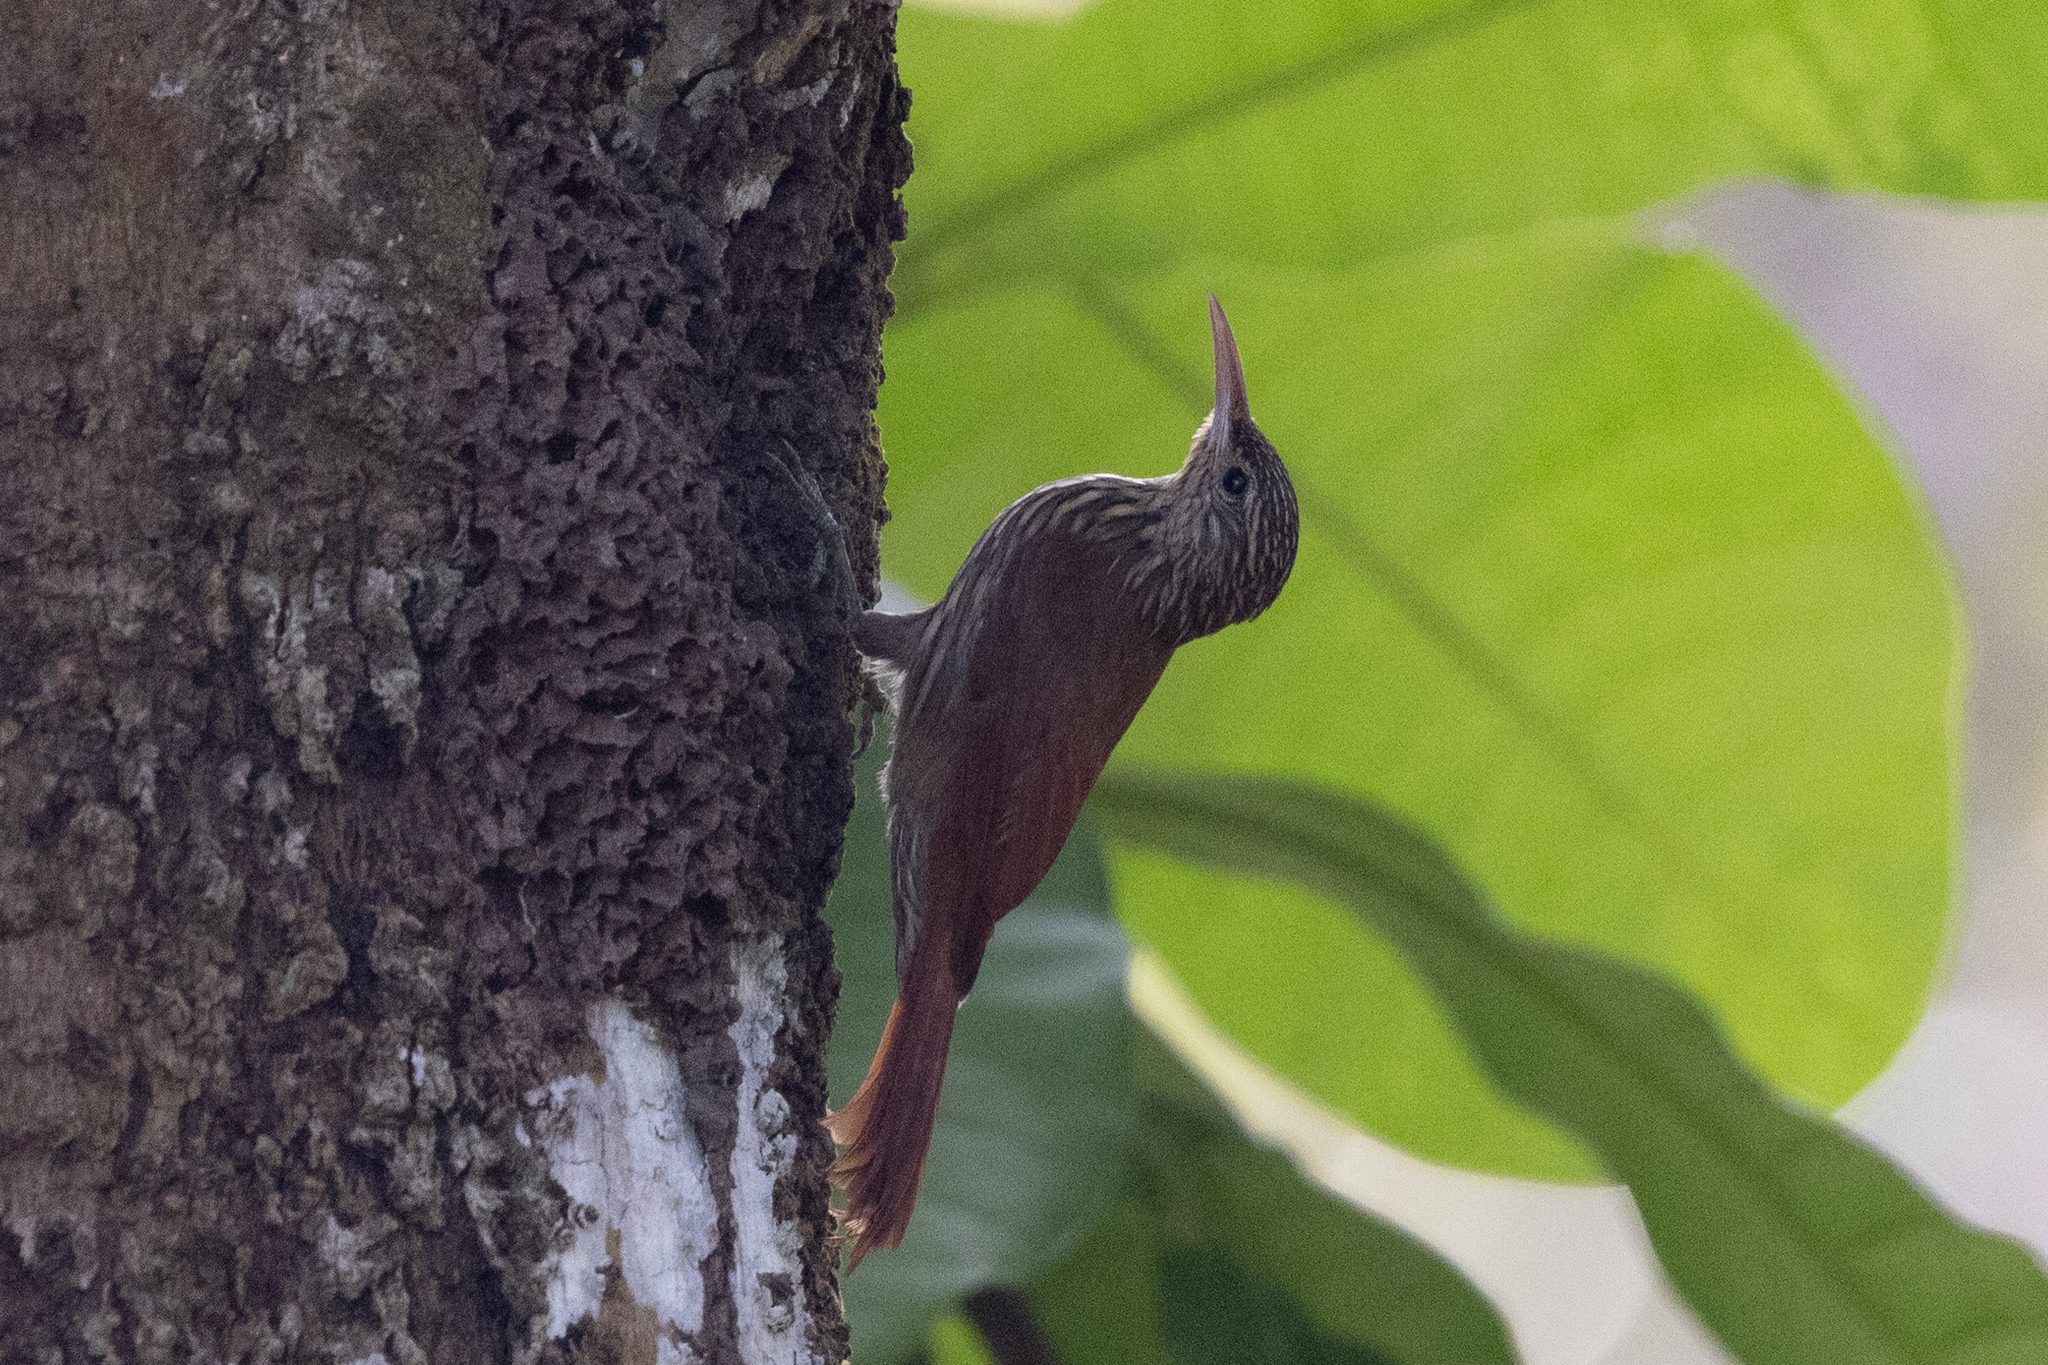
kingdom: Animalia
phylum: Chordata
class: Aves
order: Passeriformes
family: Furnariidae
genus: Lepidocolaptes
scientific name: Lepidocolaptes souleyetii
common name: Streak-headed woodcreeper
